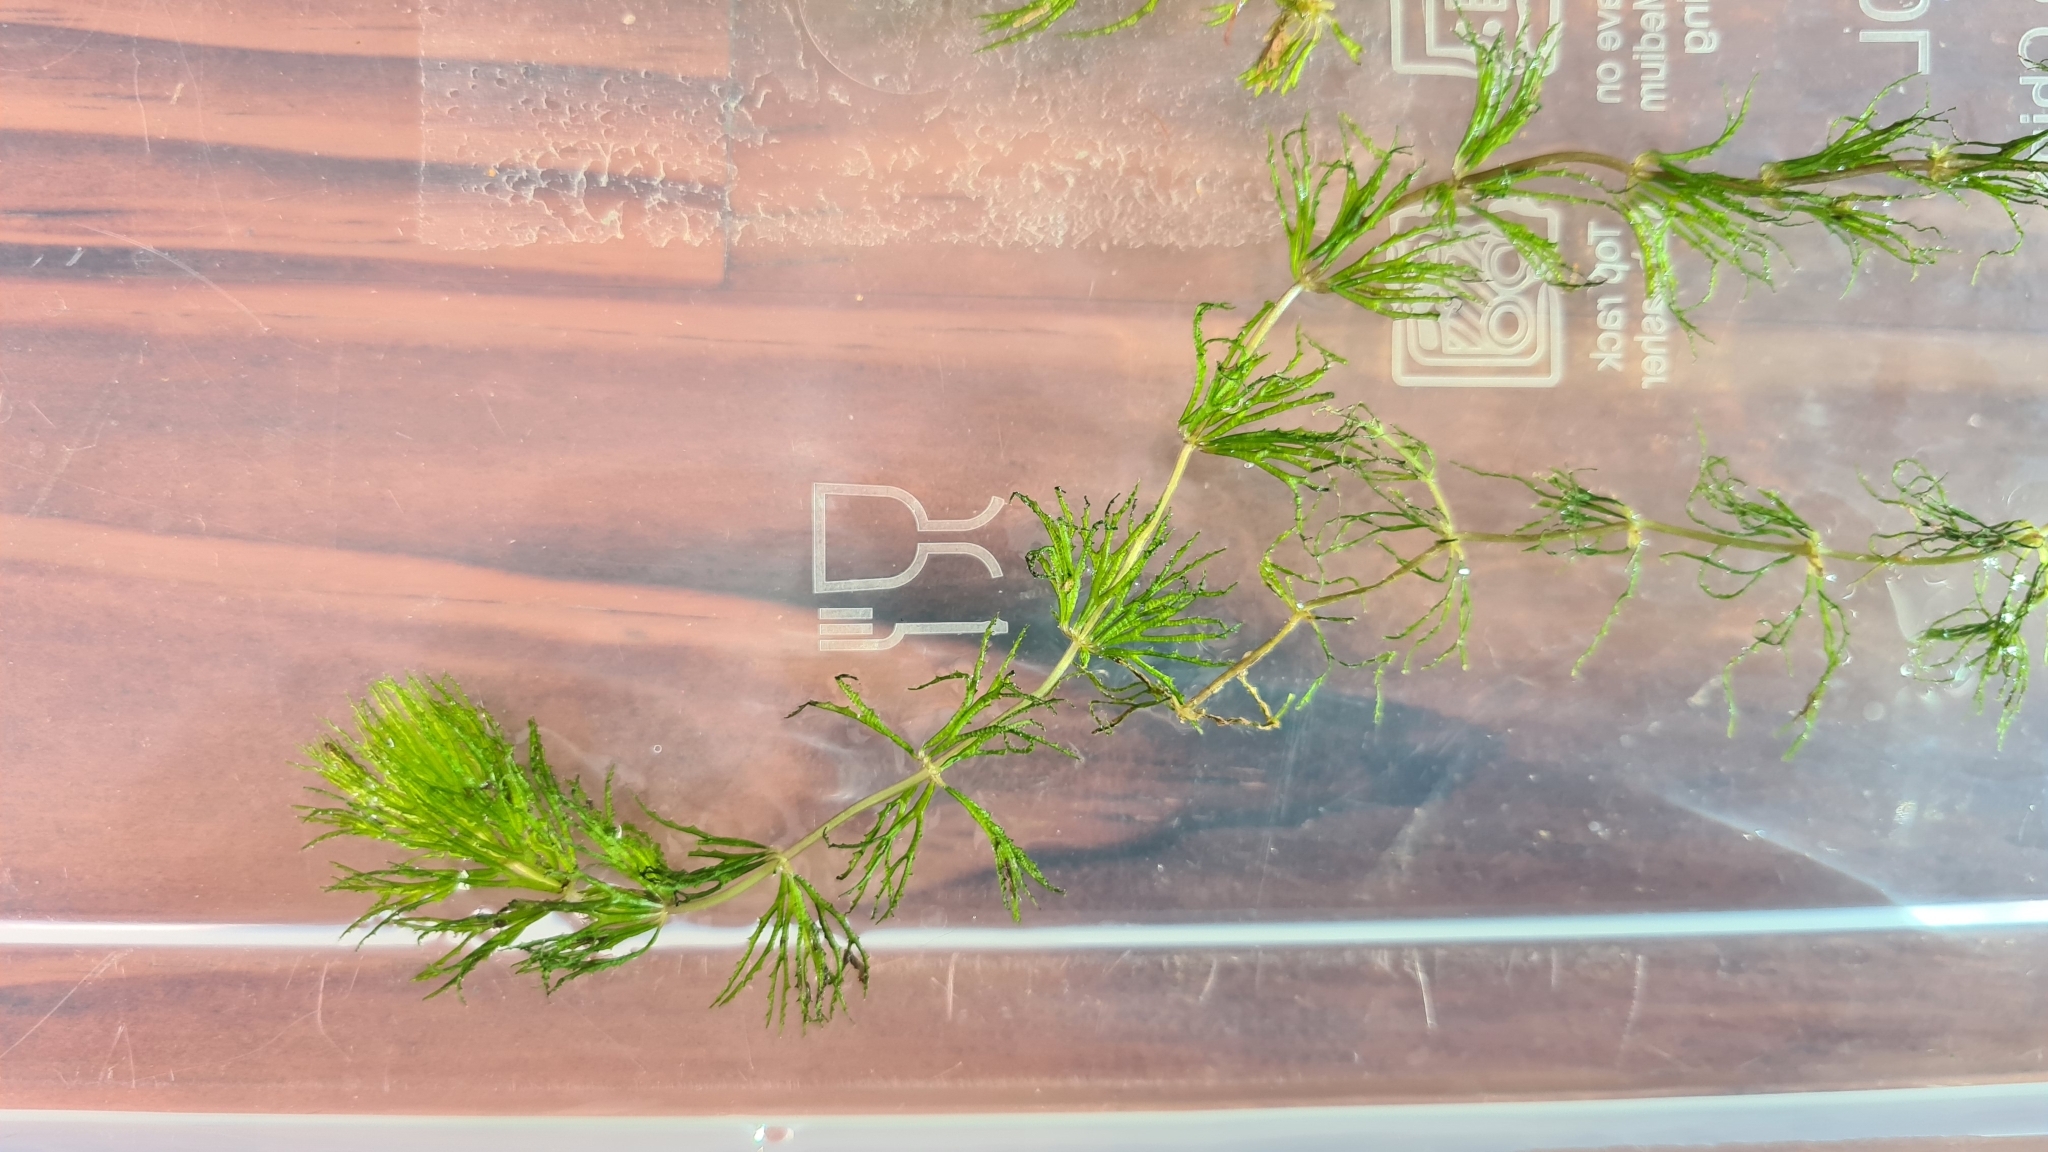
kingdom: Plantae
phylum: Tracheophyta
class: Magnoliopsida
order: Ceratophyllales
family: Ceratophyllaceae
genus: Ceratophyllum
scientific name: Ceratophyllum demersum
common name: Rigid hornwort
